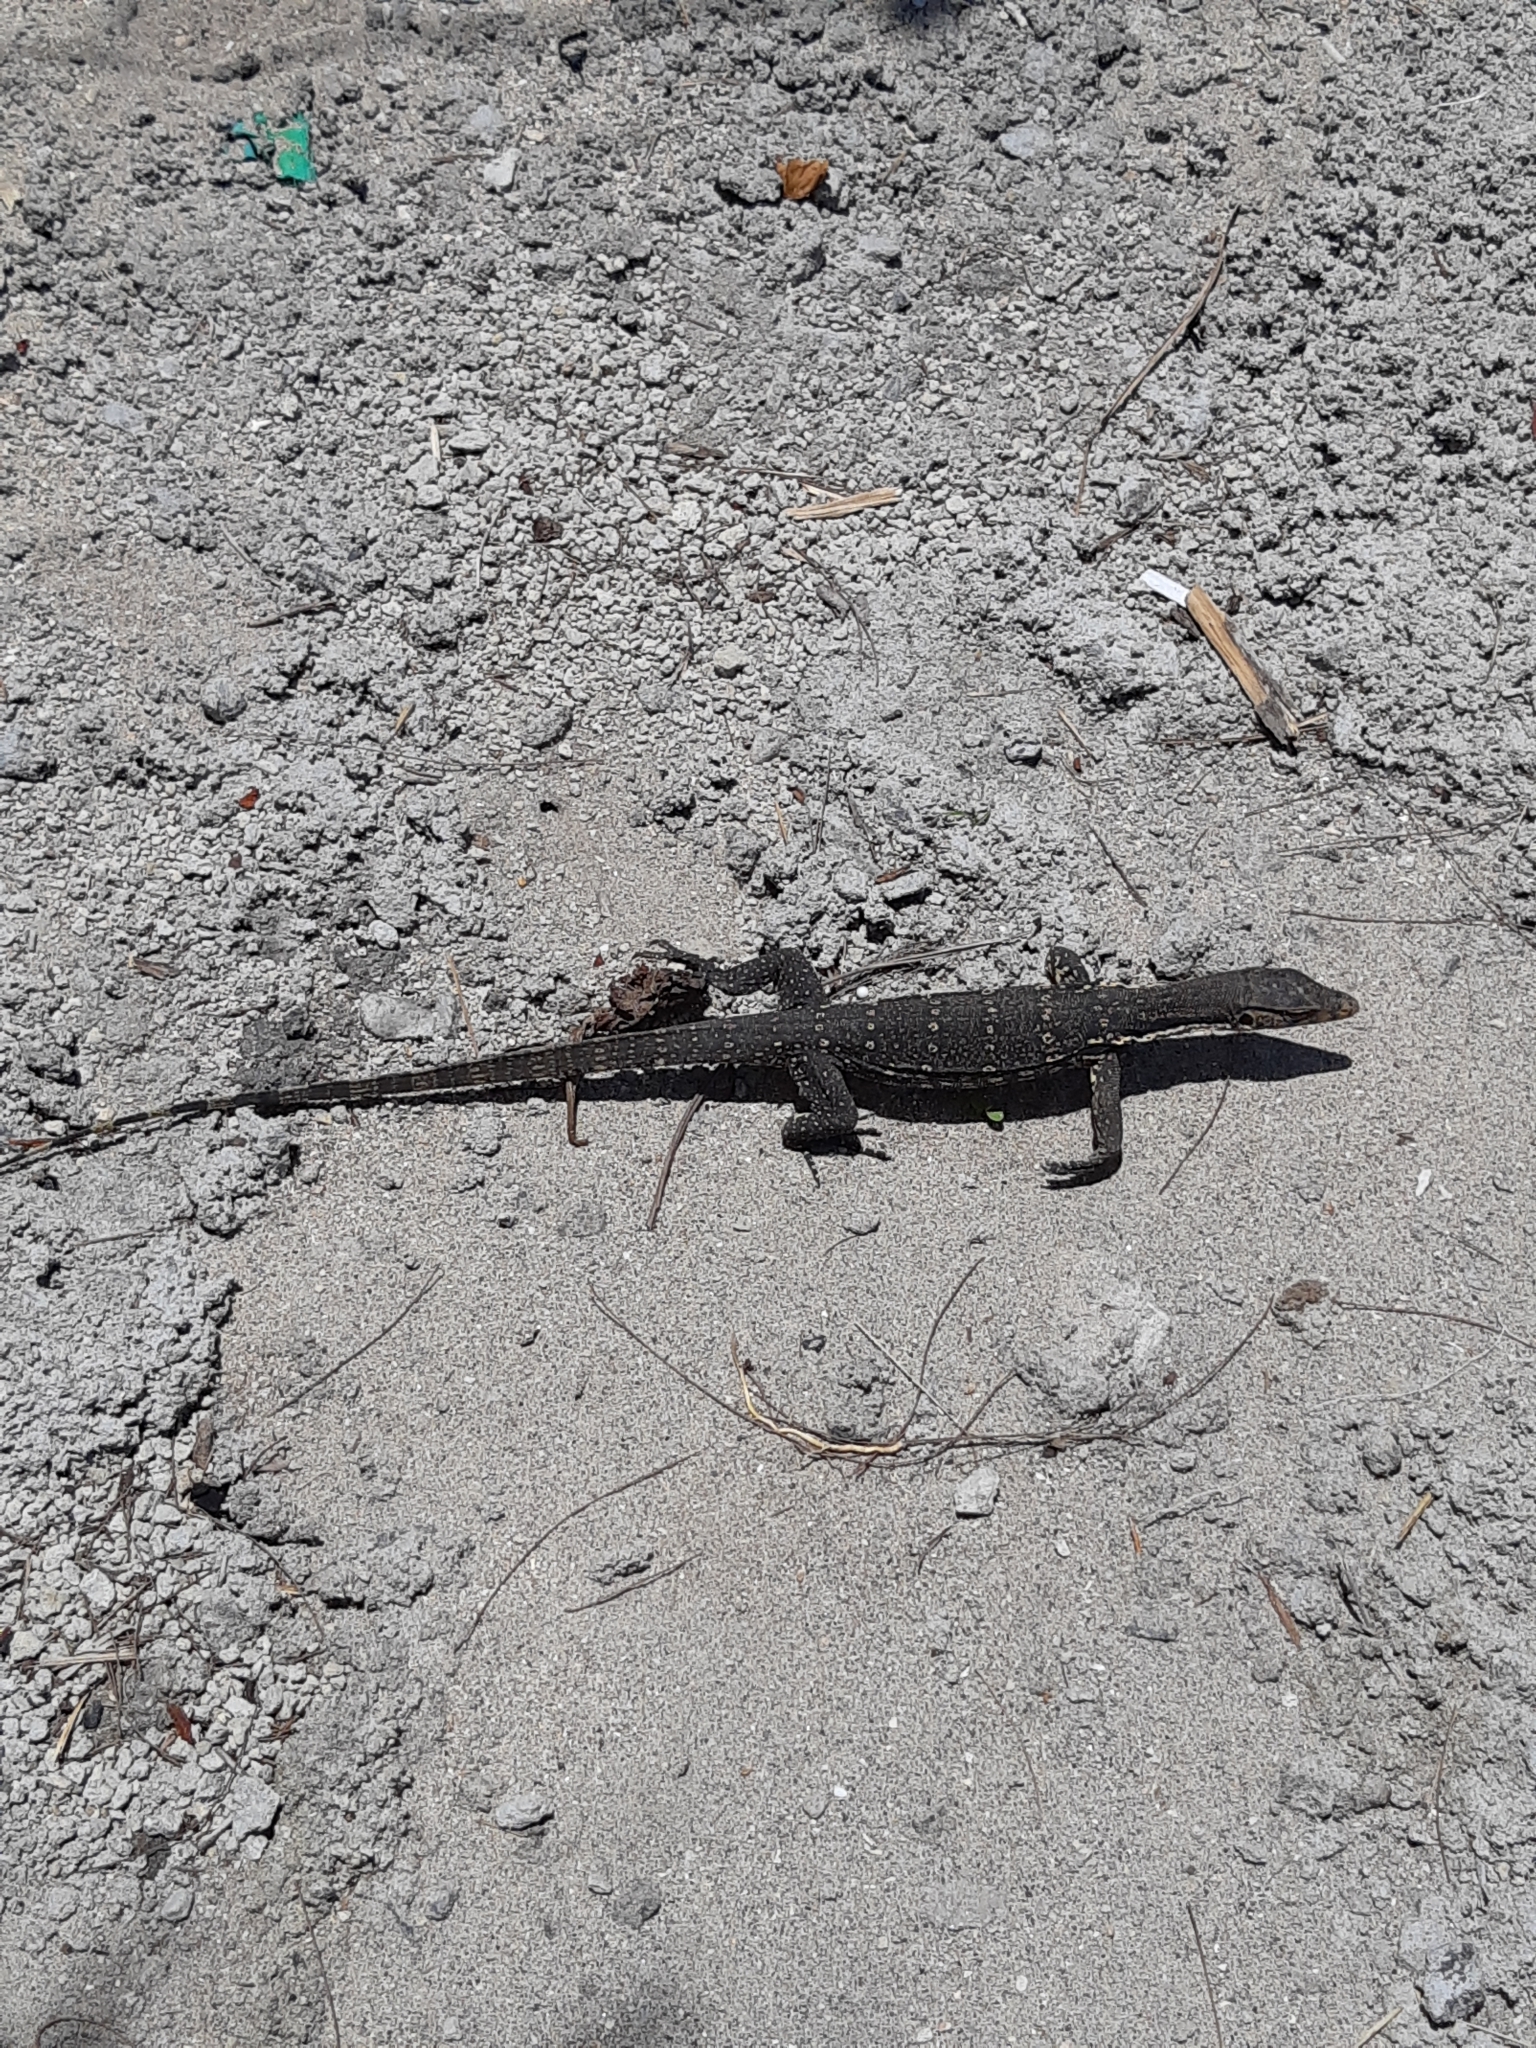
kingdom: Animalia
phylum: Chordata
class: Squamata
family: Varanidae
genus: Varanus
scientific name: Varanus salvator
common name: Common water monitor
